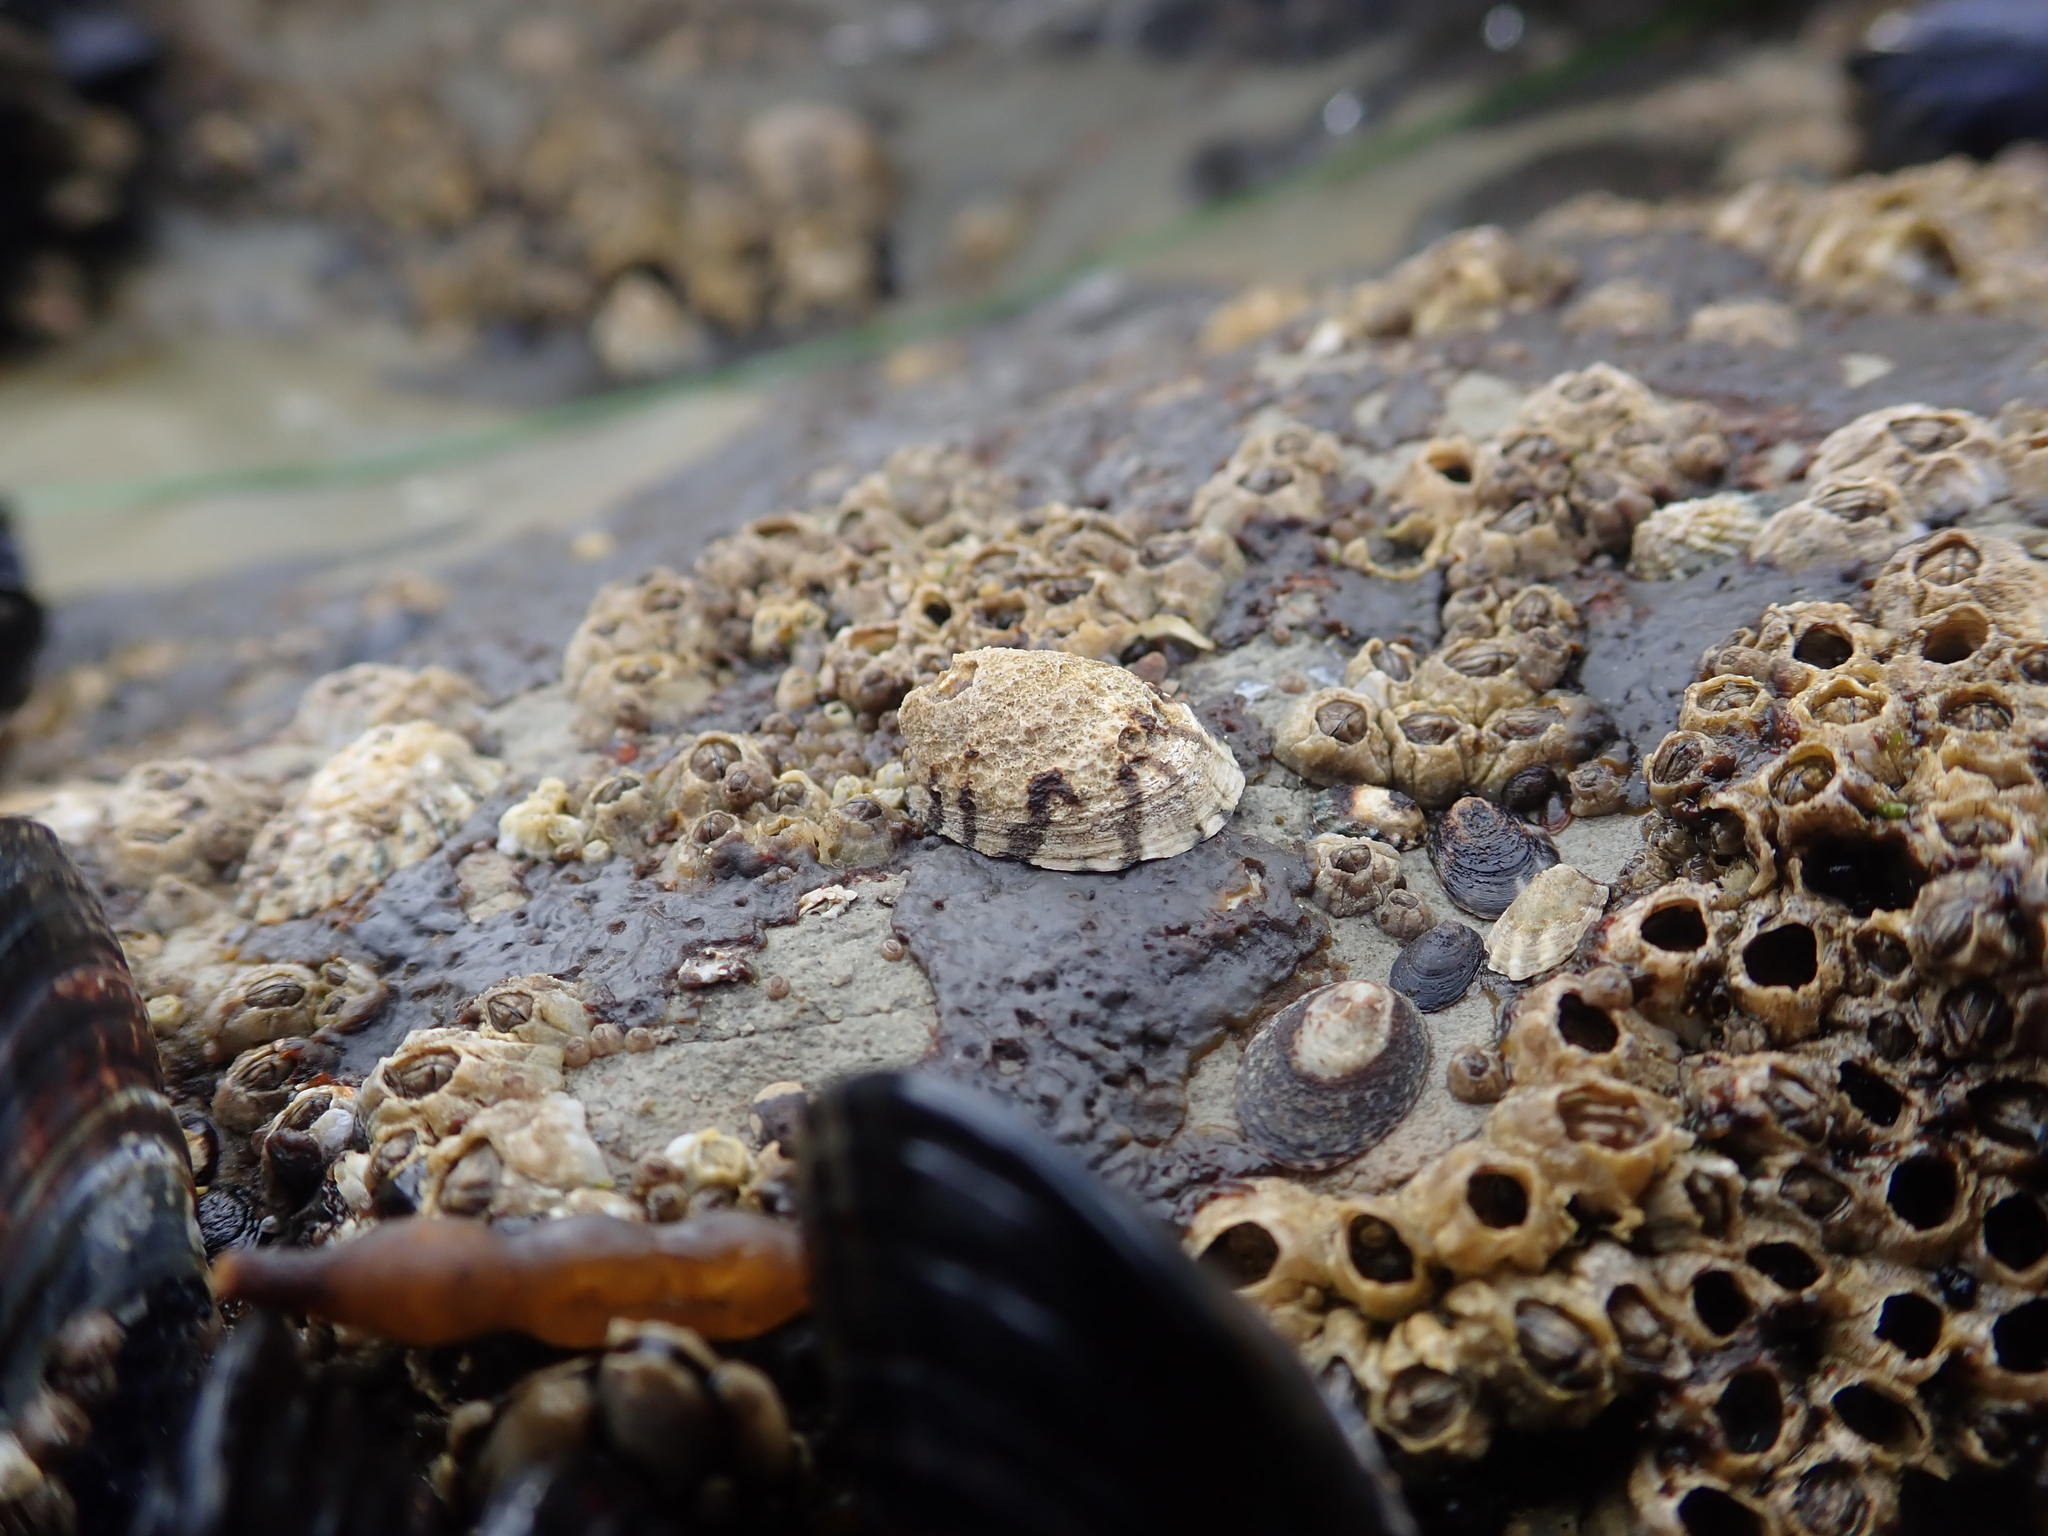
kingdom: Animalia
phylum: Mollusca
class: Gastropoda
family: Lottiidae
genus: Lottia
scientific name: Lottia digitalis
